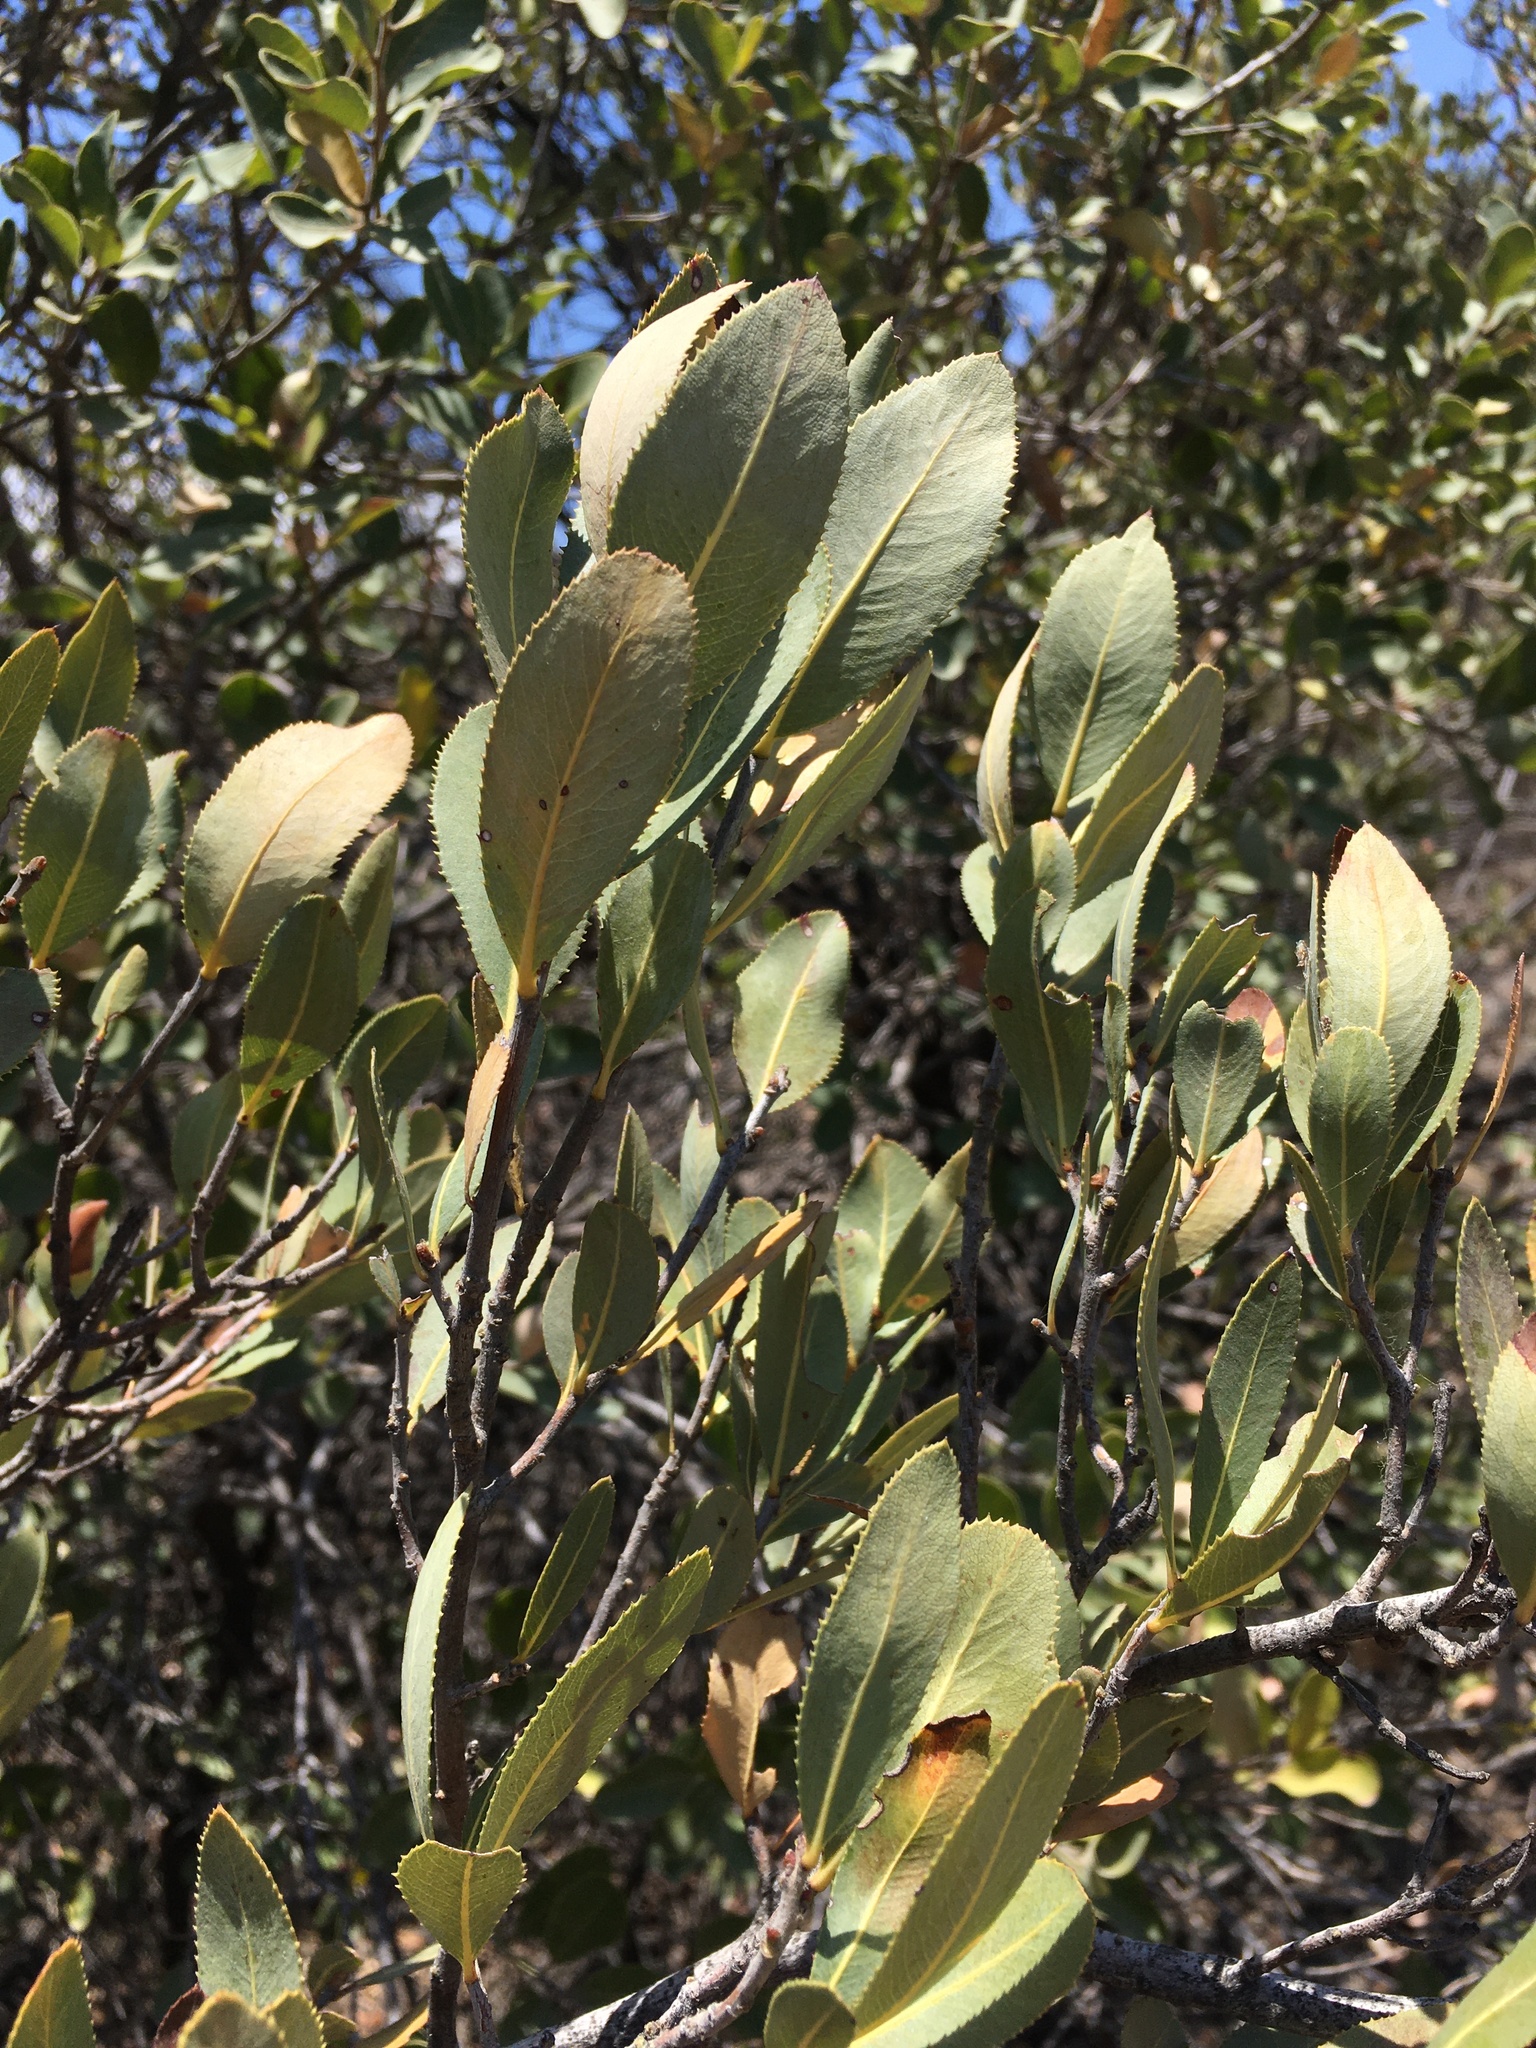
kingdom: Plantae
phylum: Tracheophyta
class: Magnoliopsida
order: Rosales
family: Rosaceae
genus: Kageneckia
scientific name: Kageneckia oblonga
